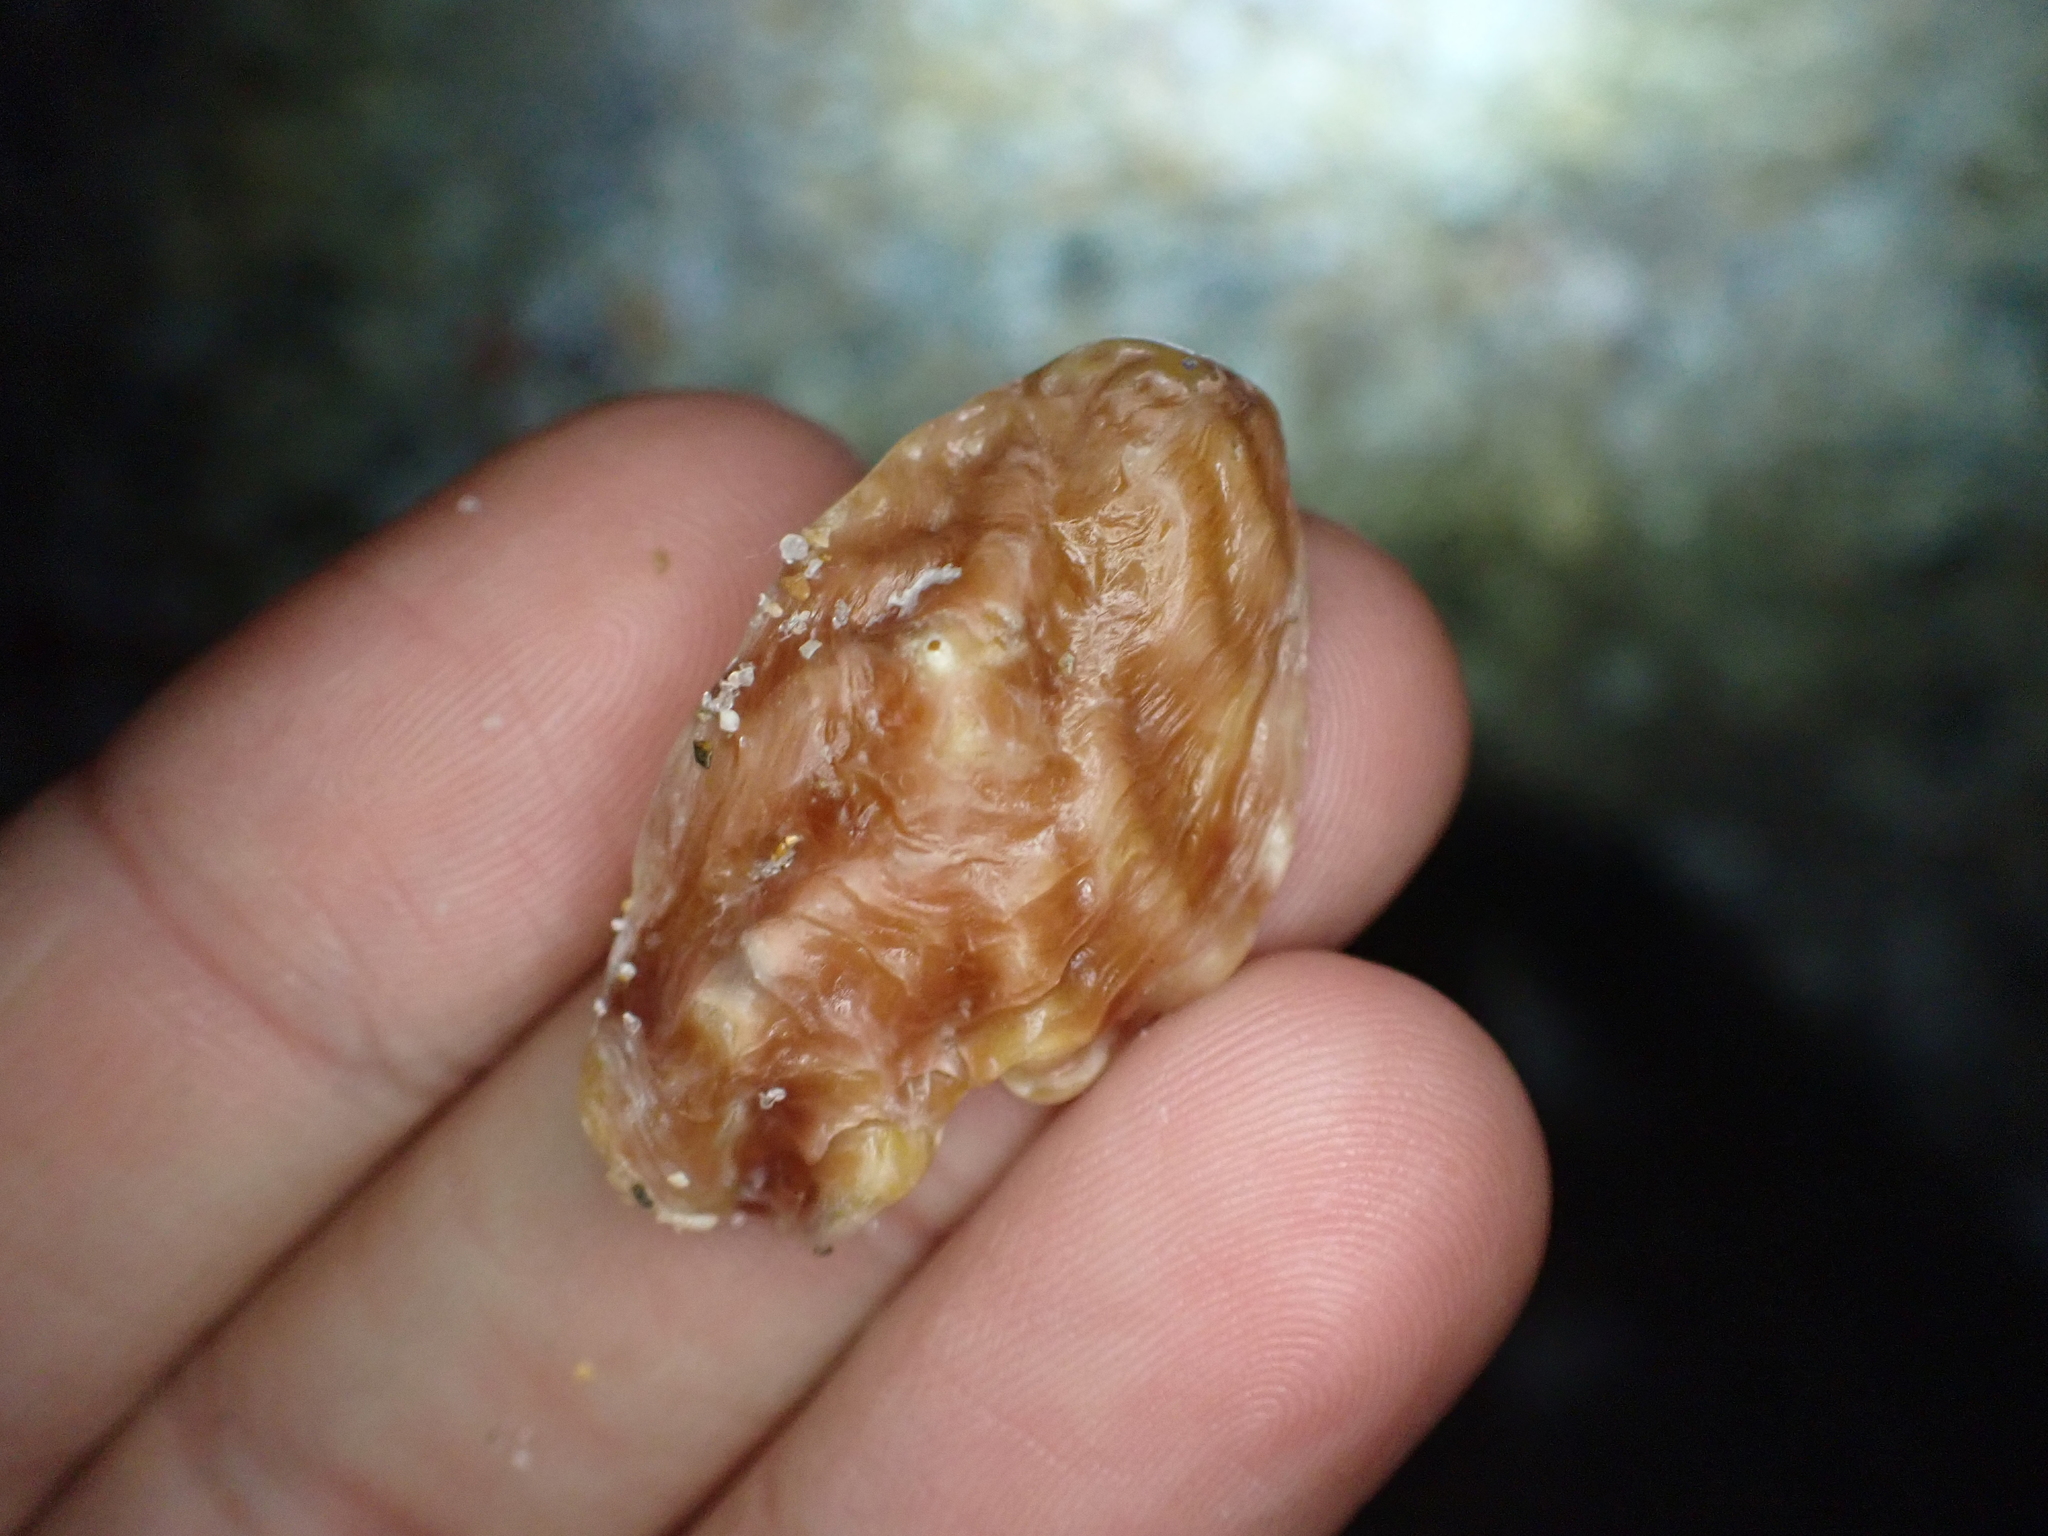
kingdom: Animalia
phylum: Mollusca
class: Bivalvia
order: Ostreida
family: Ostreidae
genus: Dendostrea
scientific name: Dendostrea frons
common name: Frond oyster
